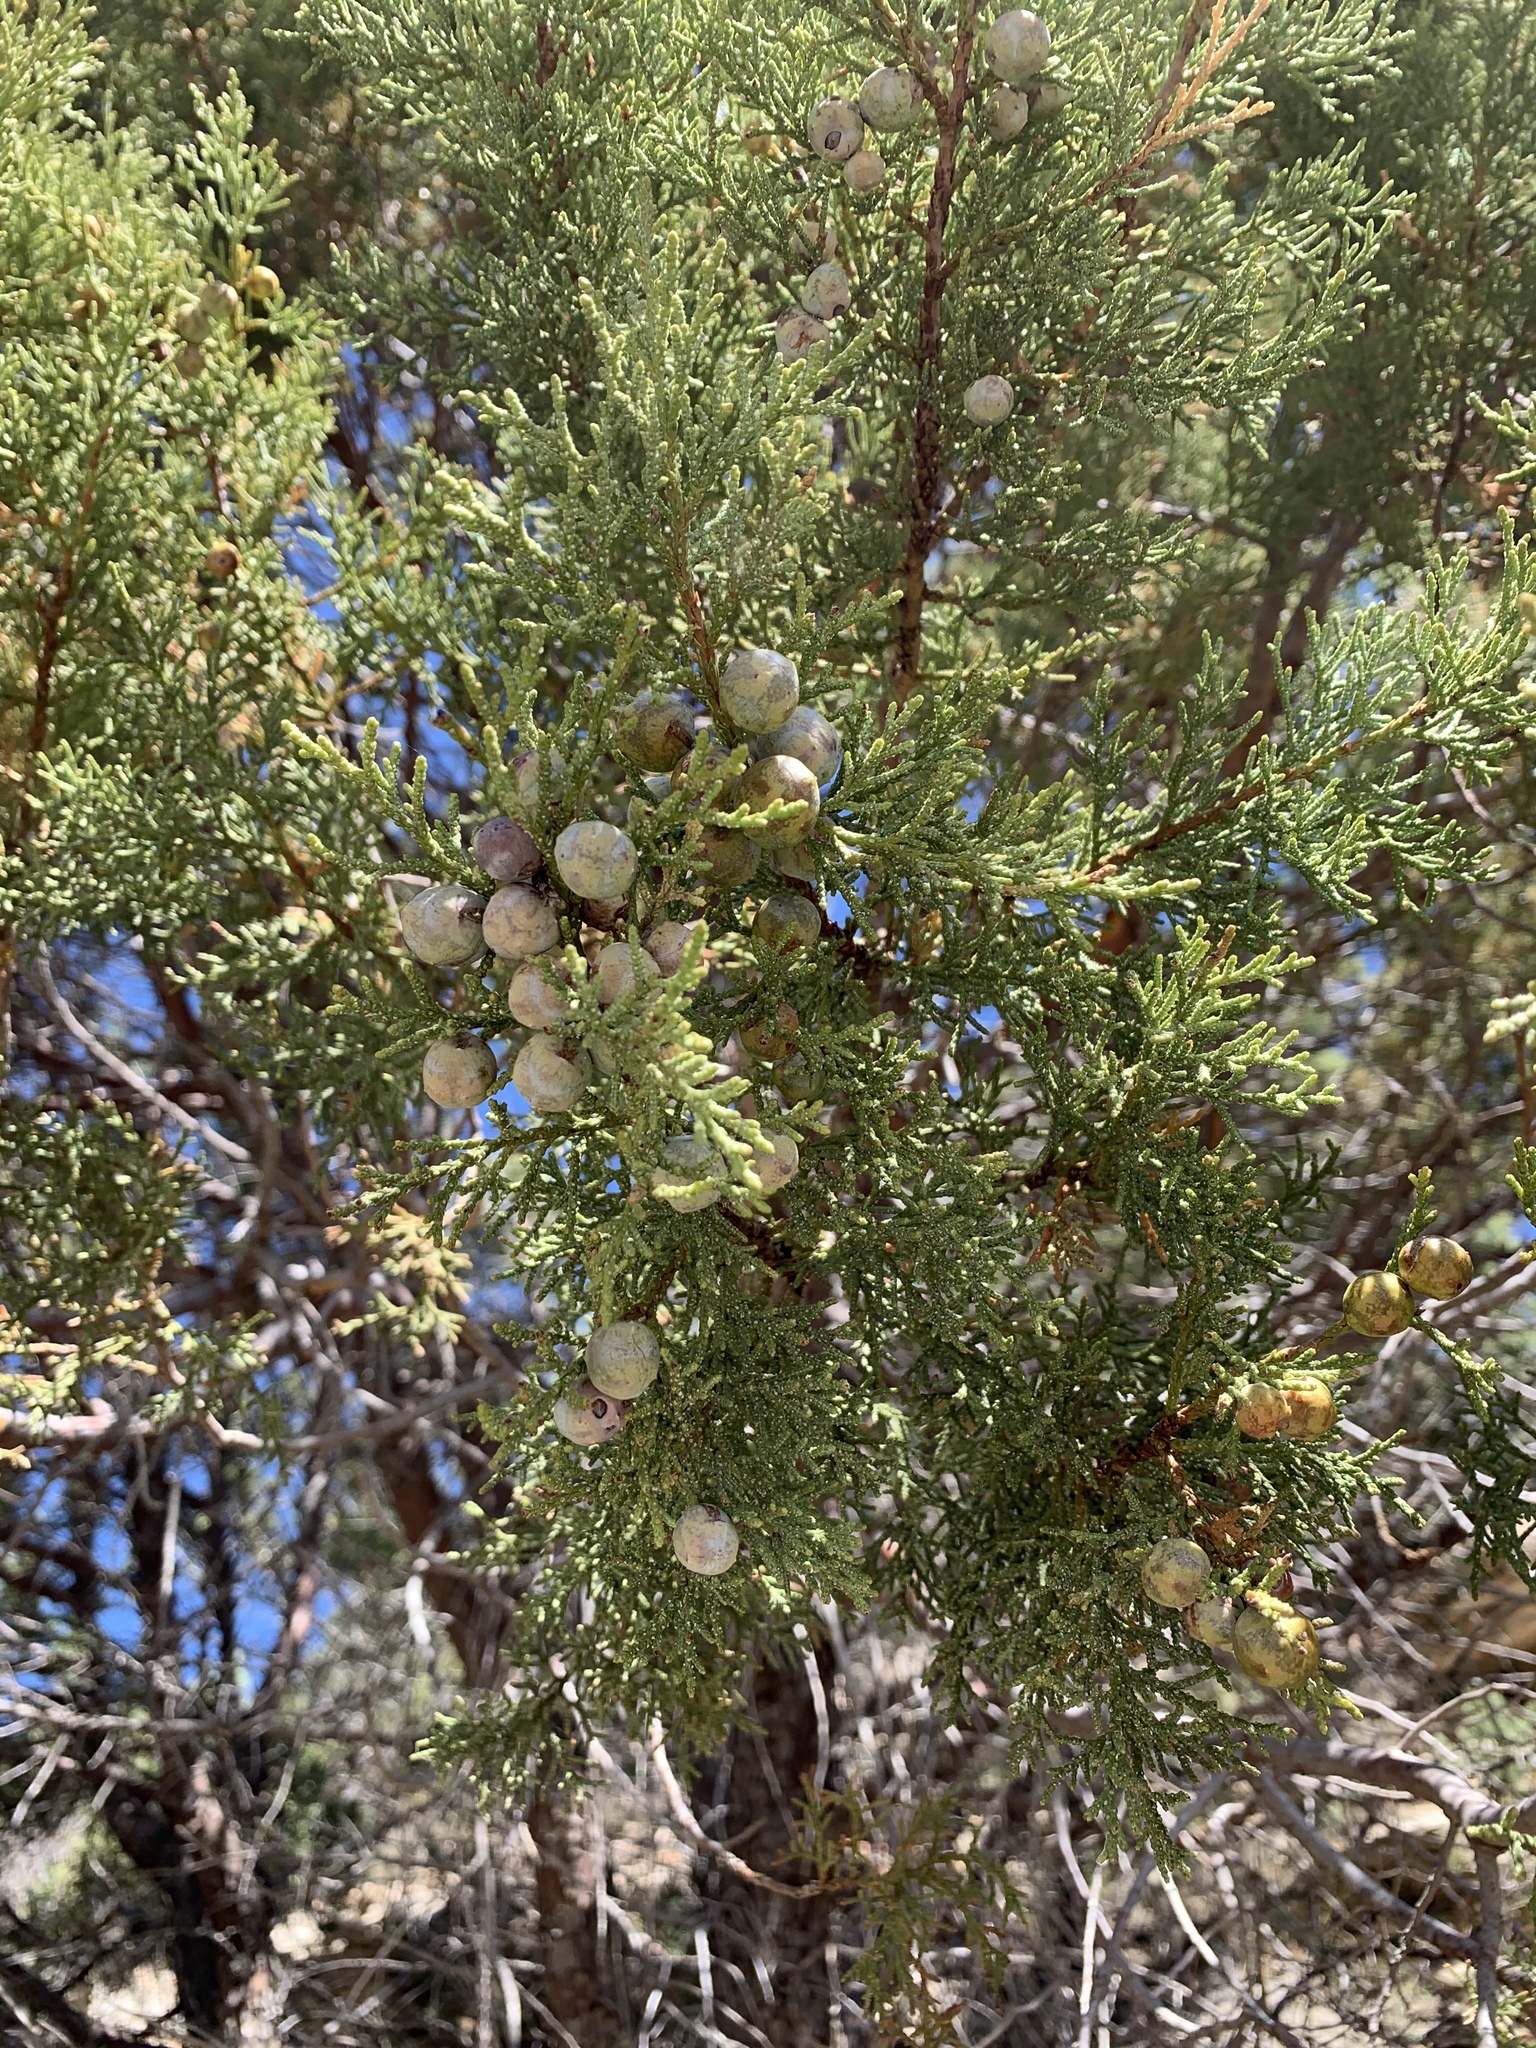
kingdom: Plantae
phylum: Tracheophyta
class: Pinopsida
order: Pinales
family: Cupressaceae
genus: Juniperus
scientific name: Juniperus deppeana
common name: Alligator juniper
